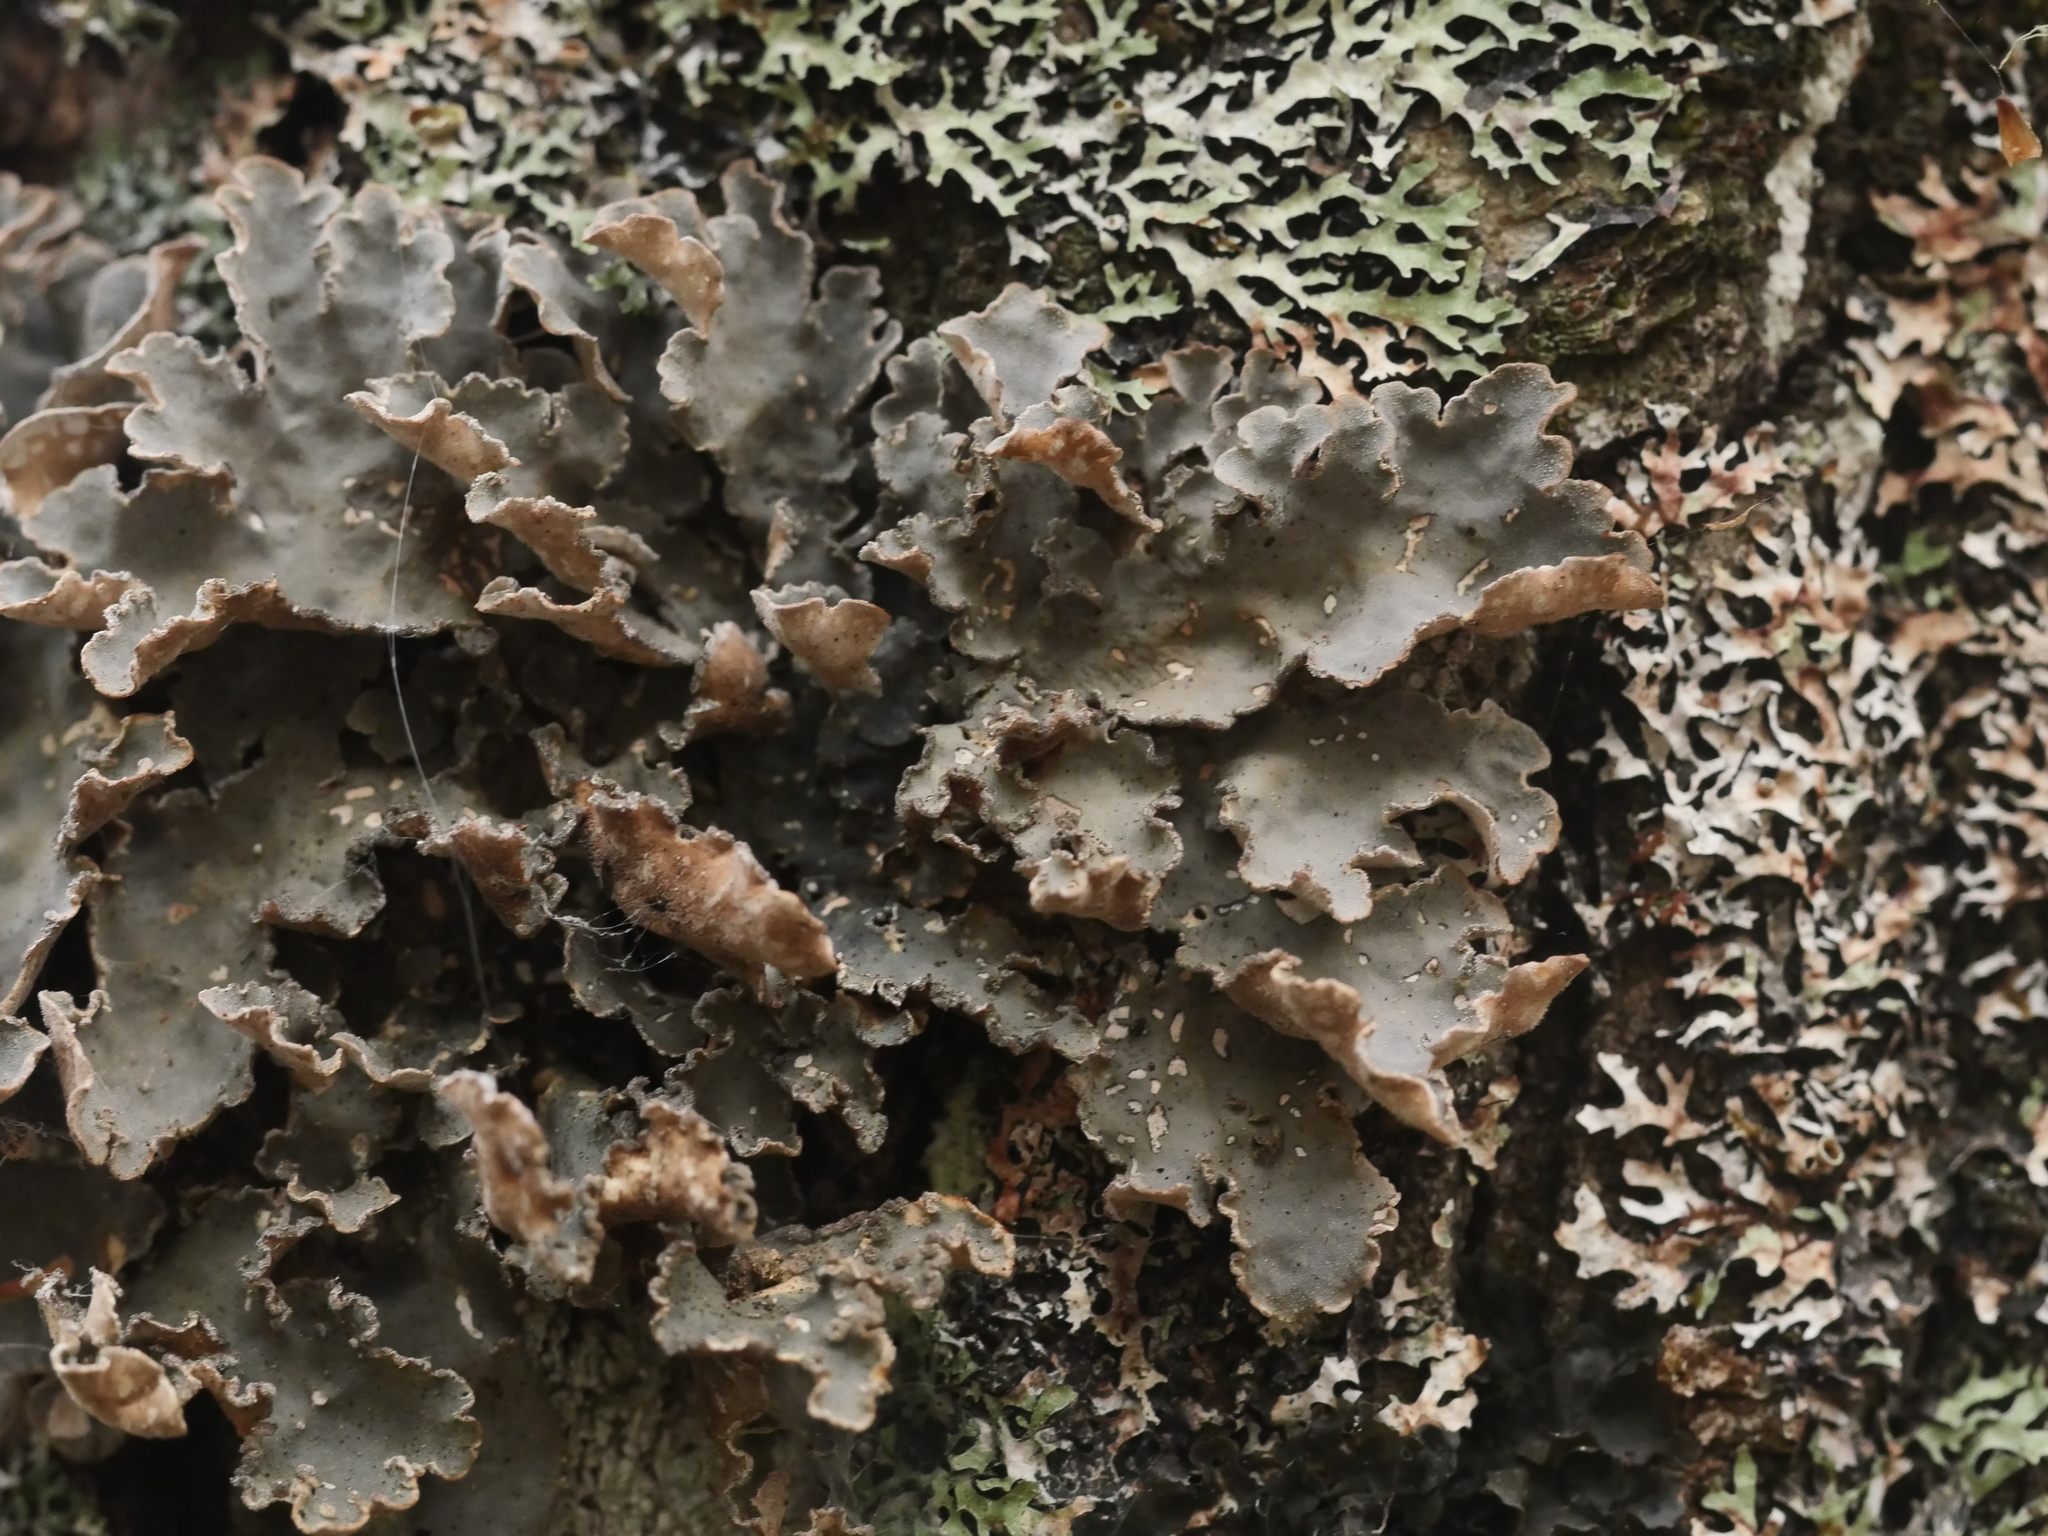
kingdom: Fungi
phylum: Ascomycota
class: Lecanoromycetes
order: Peltigerales
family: Lobariaceae
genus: Lobarina
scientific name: Lobarina scrobiculata
